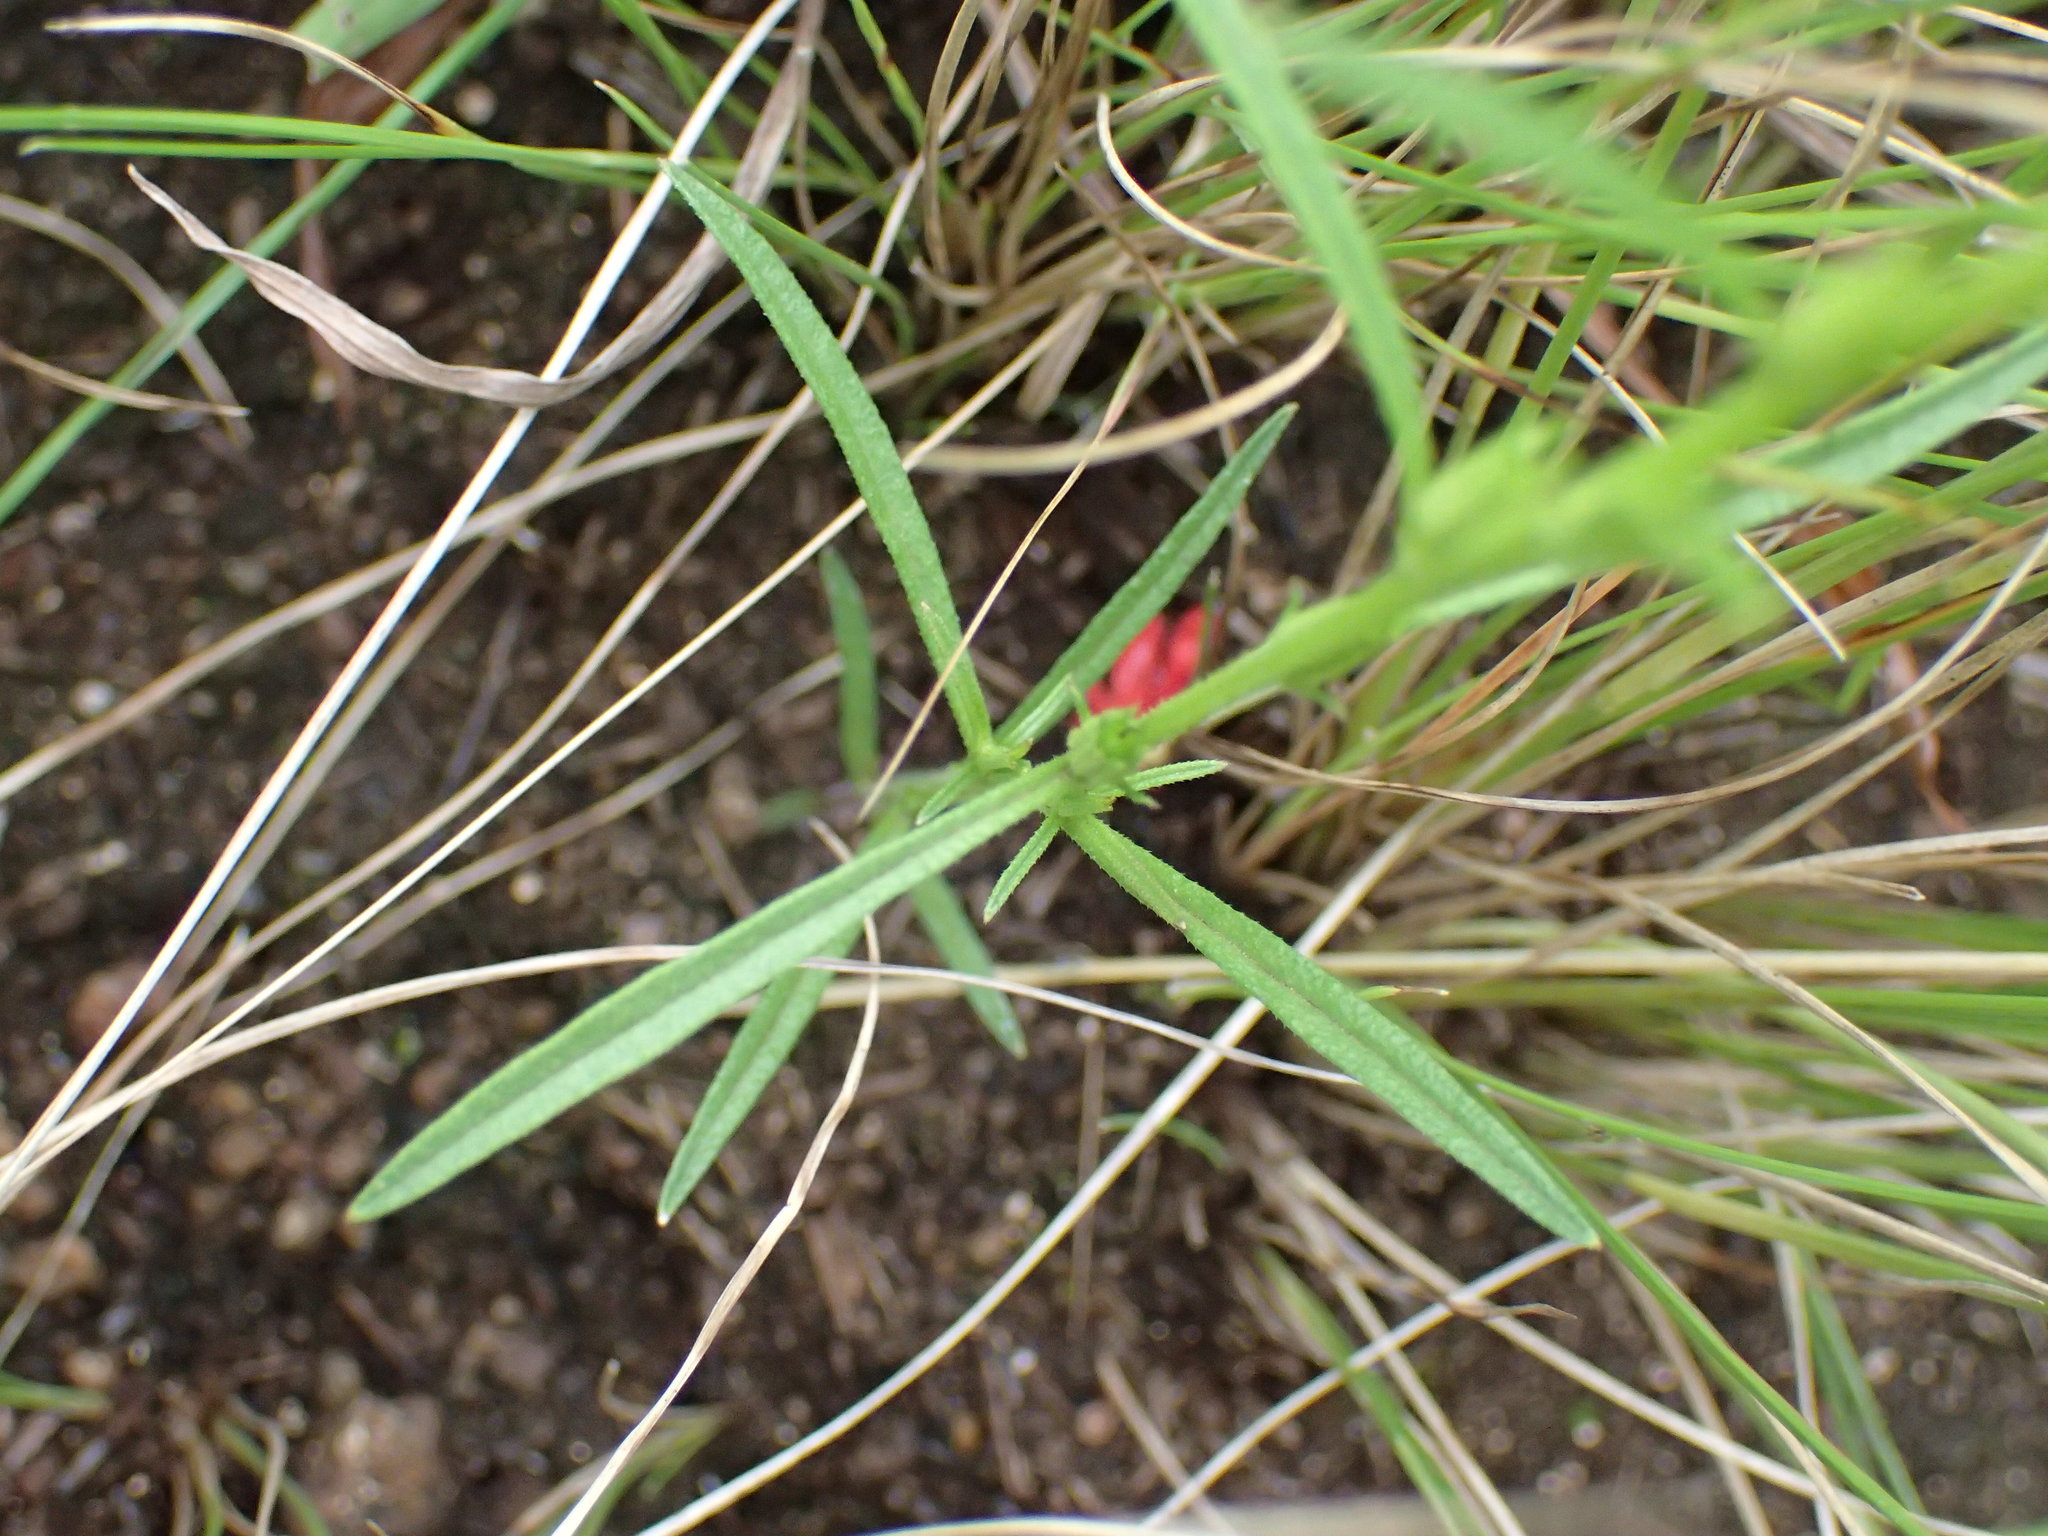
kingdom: Plantae
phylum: Tracheophyta
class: Magnoliopsida
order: Lamiales
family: Orobanchaceae
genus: Striga
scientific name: Striga asiatica
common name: Asiatic witchweed
